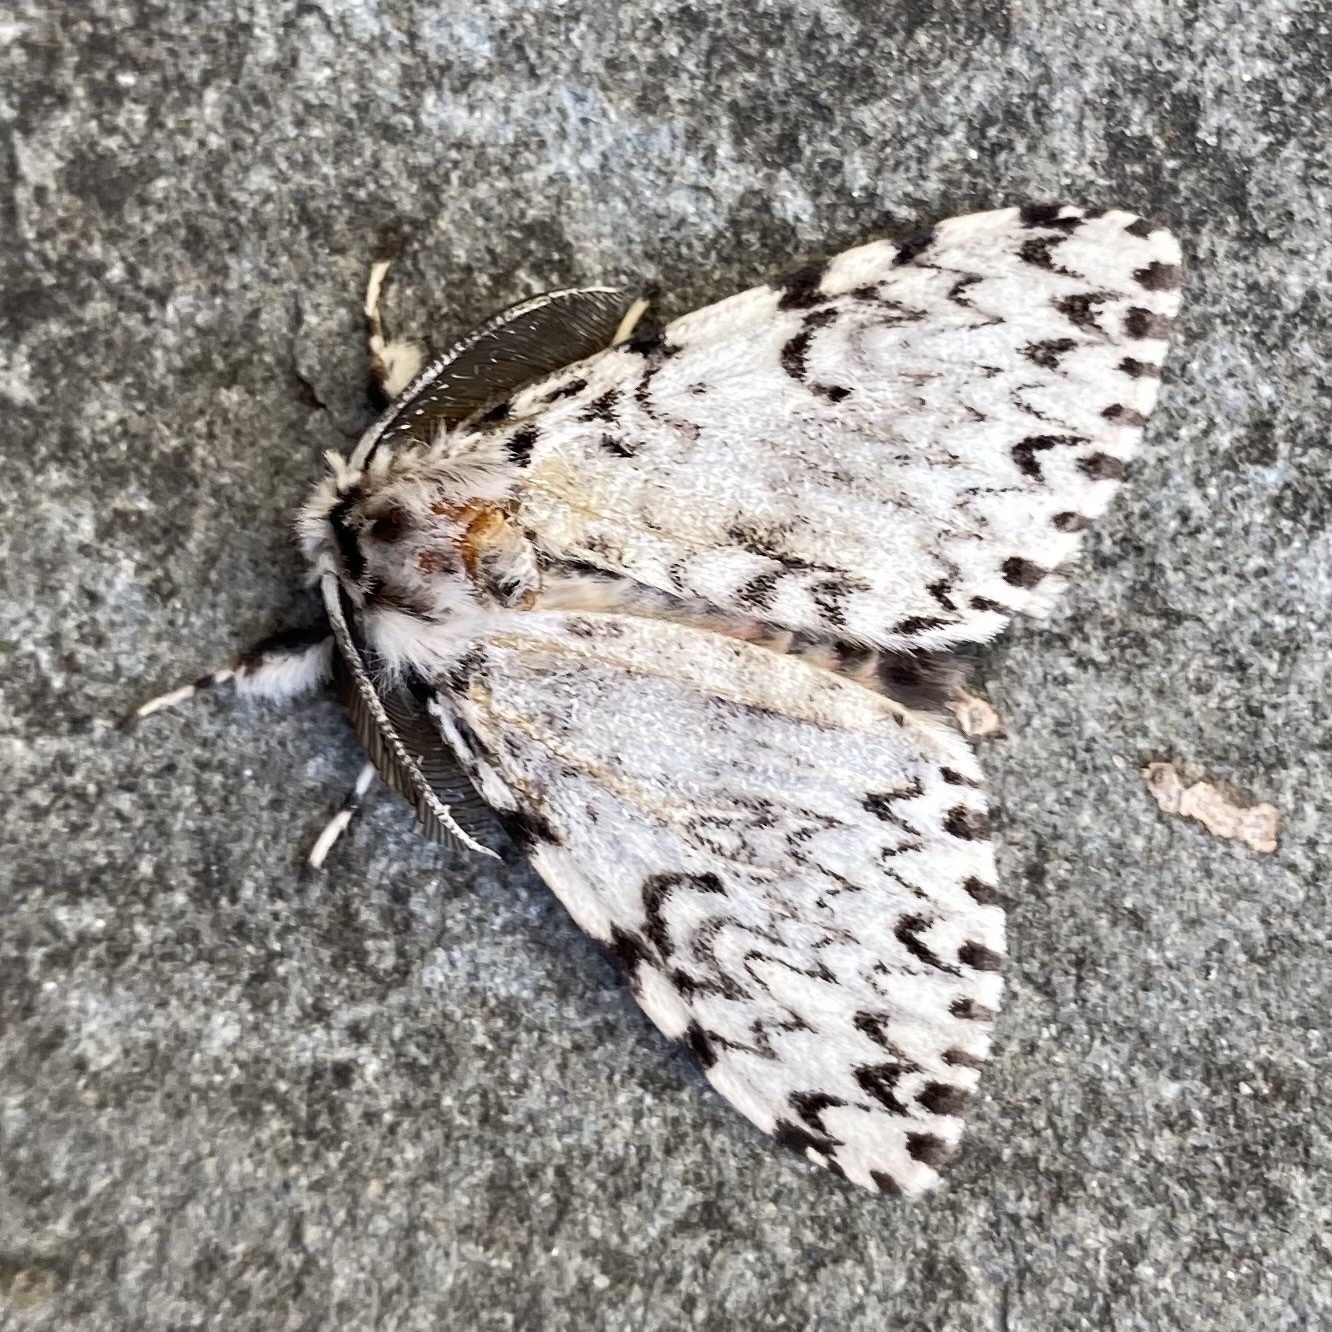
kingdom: Animalia
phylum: Arthropoda
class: Insecta
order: Lepidoptera
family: Erebidae
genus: Lymantria
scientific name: Lymantria monacha
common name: Black arches
